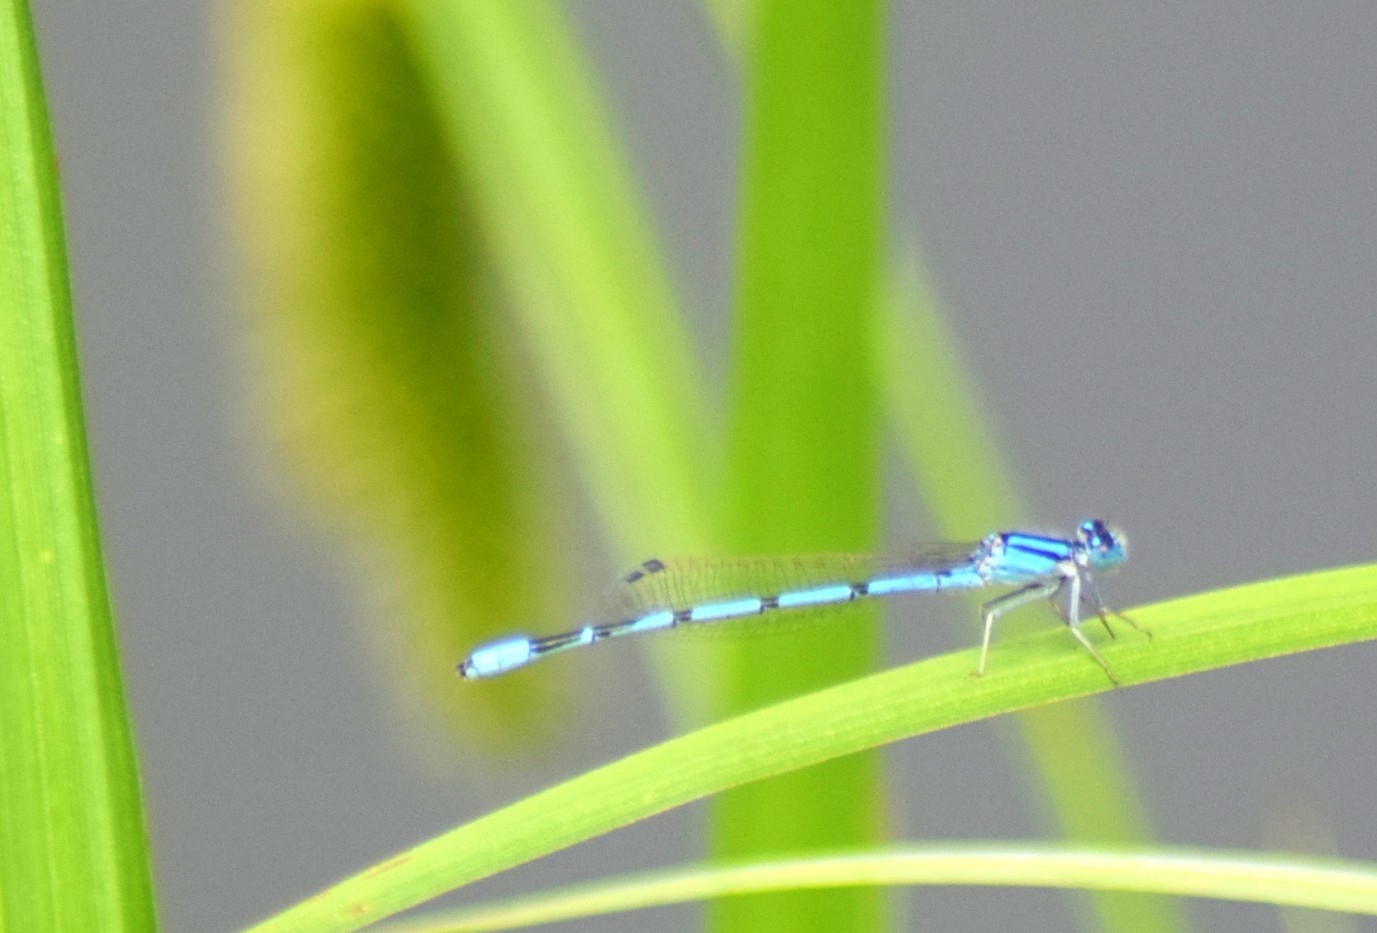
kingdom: Animalia
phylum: Arthropoda
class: Insecta
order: Odonata
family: Coenagrionidae
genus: Enallagma
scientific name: Enallagma
